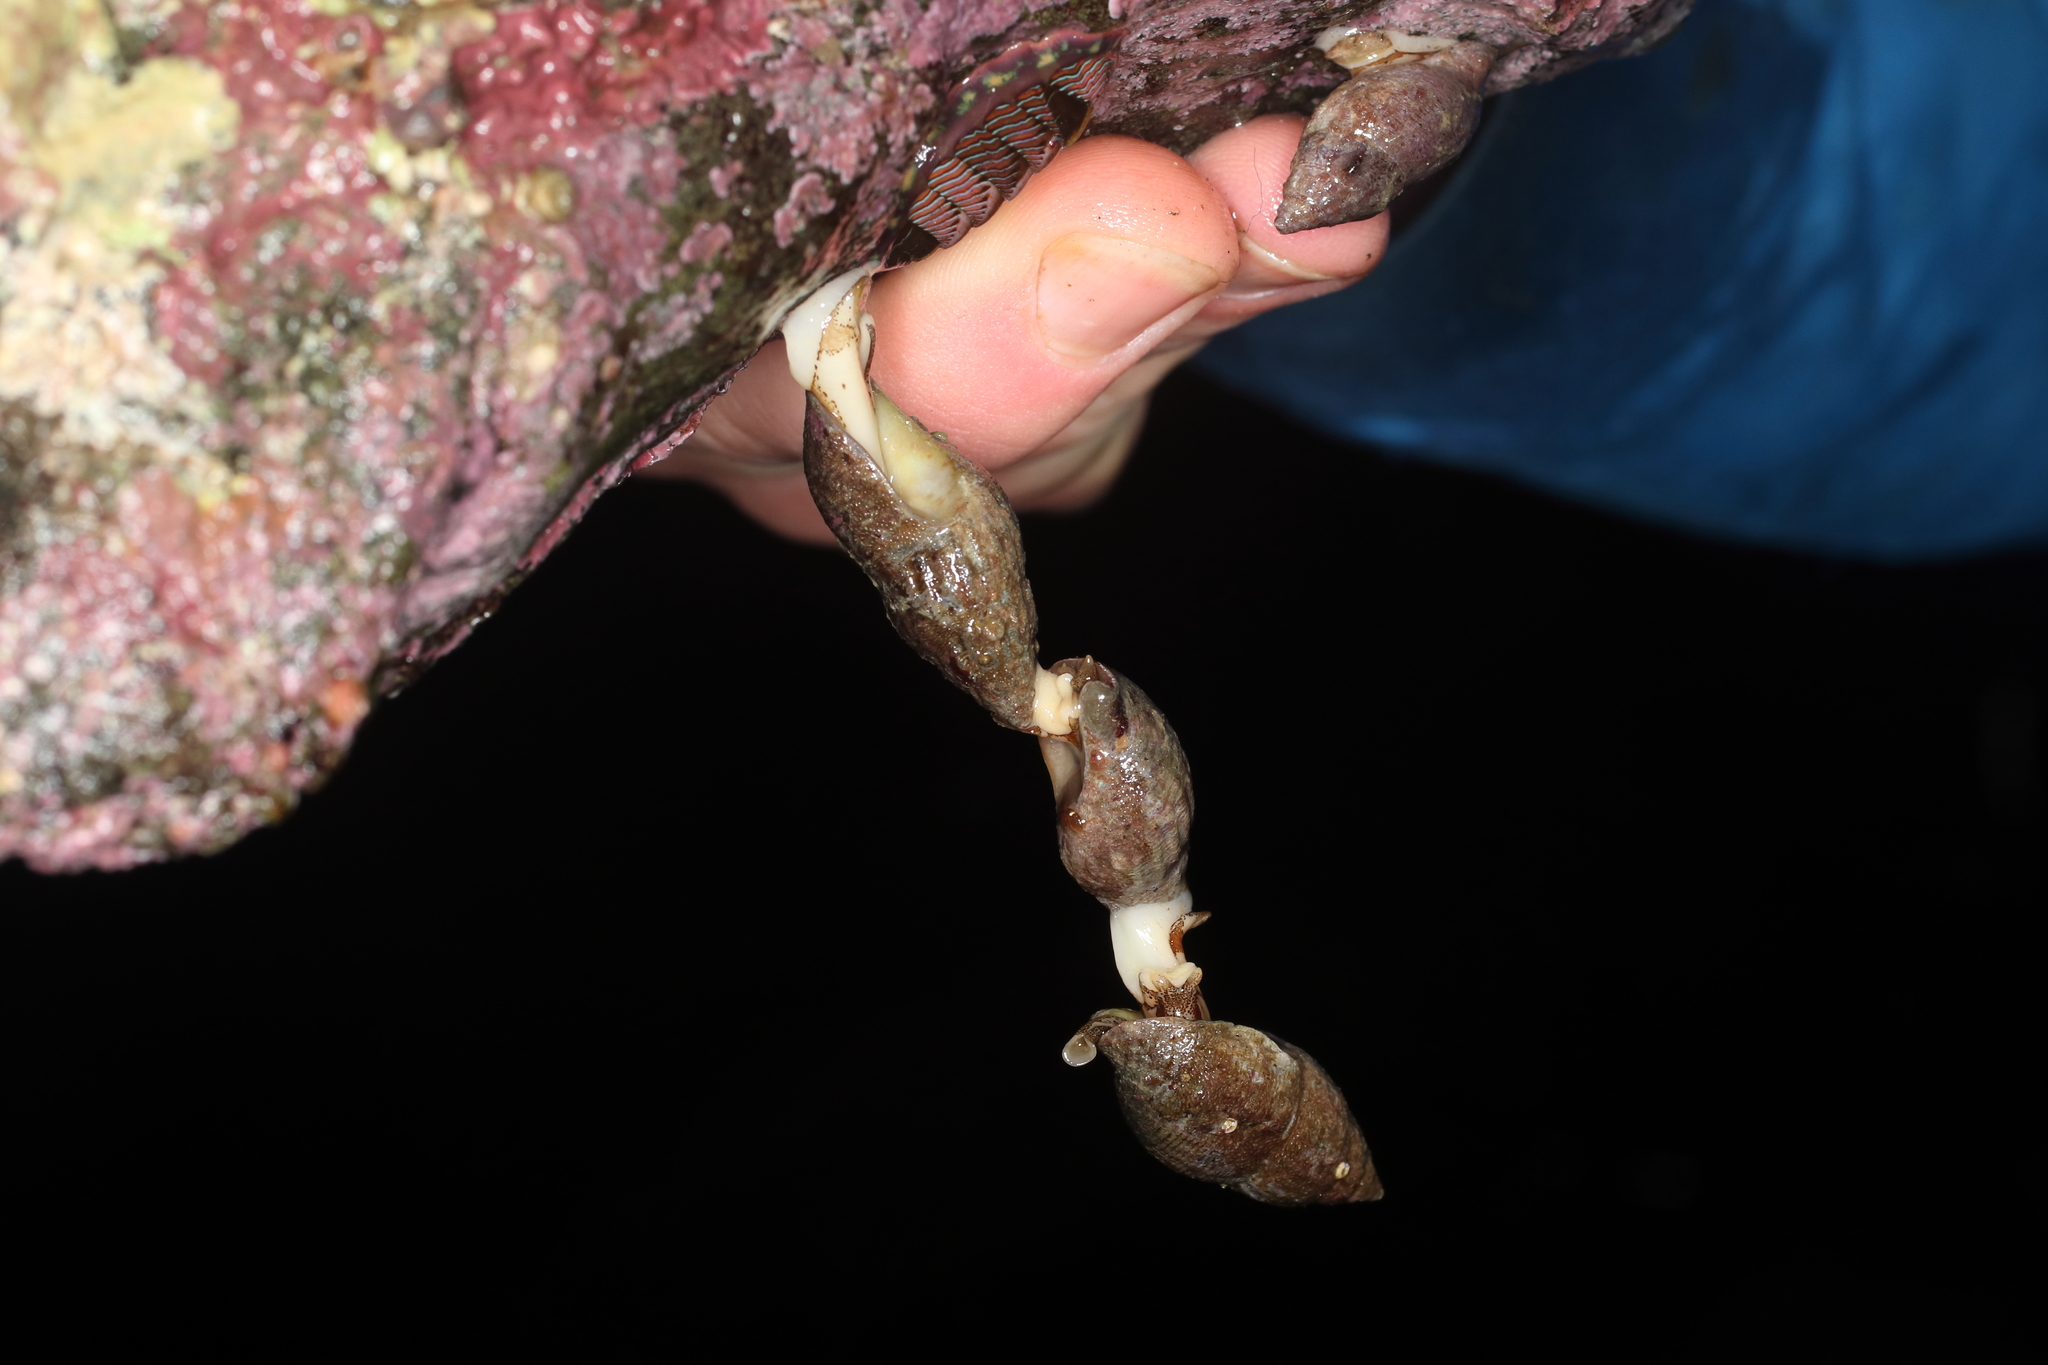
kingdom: Animalia
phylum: Mollusca
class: Gastropoda
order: Neogastropoda
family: Columbellidae
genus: Amphissa
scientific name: Amphissa columbiana
